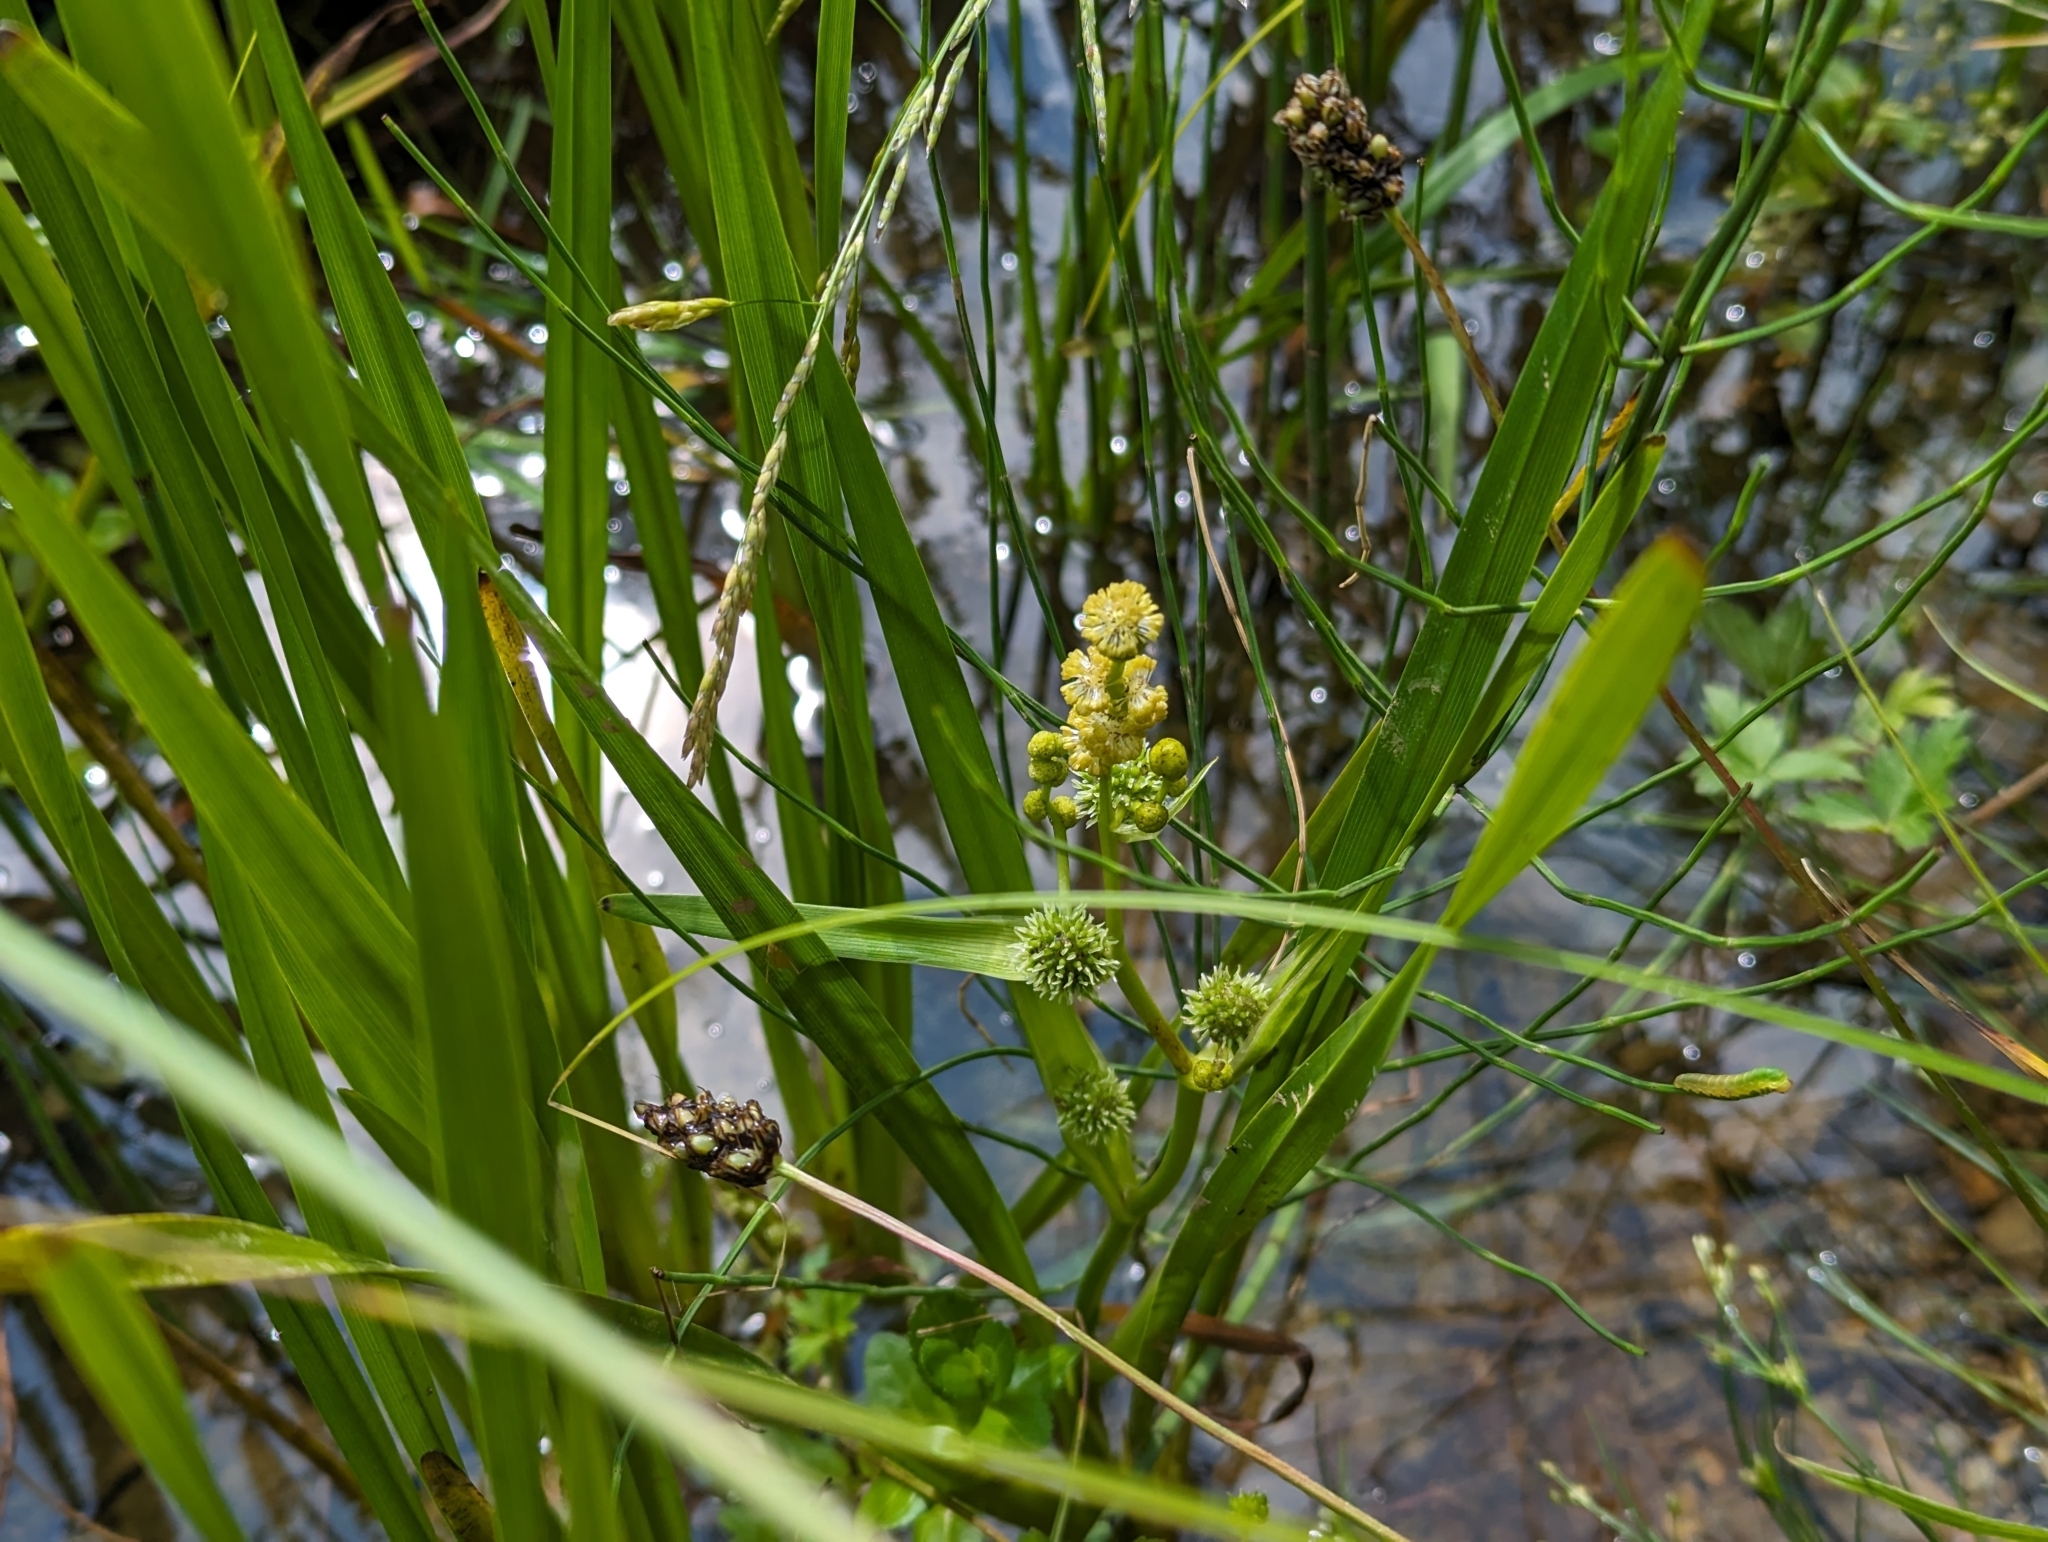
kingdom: Plantae
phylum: Tracheophyta
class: Liliopsida
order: Poales
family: Typhaceae
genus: Sparganium
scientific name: Sparganium erectum
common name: Branched bur-reed
